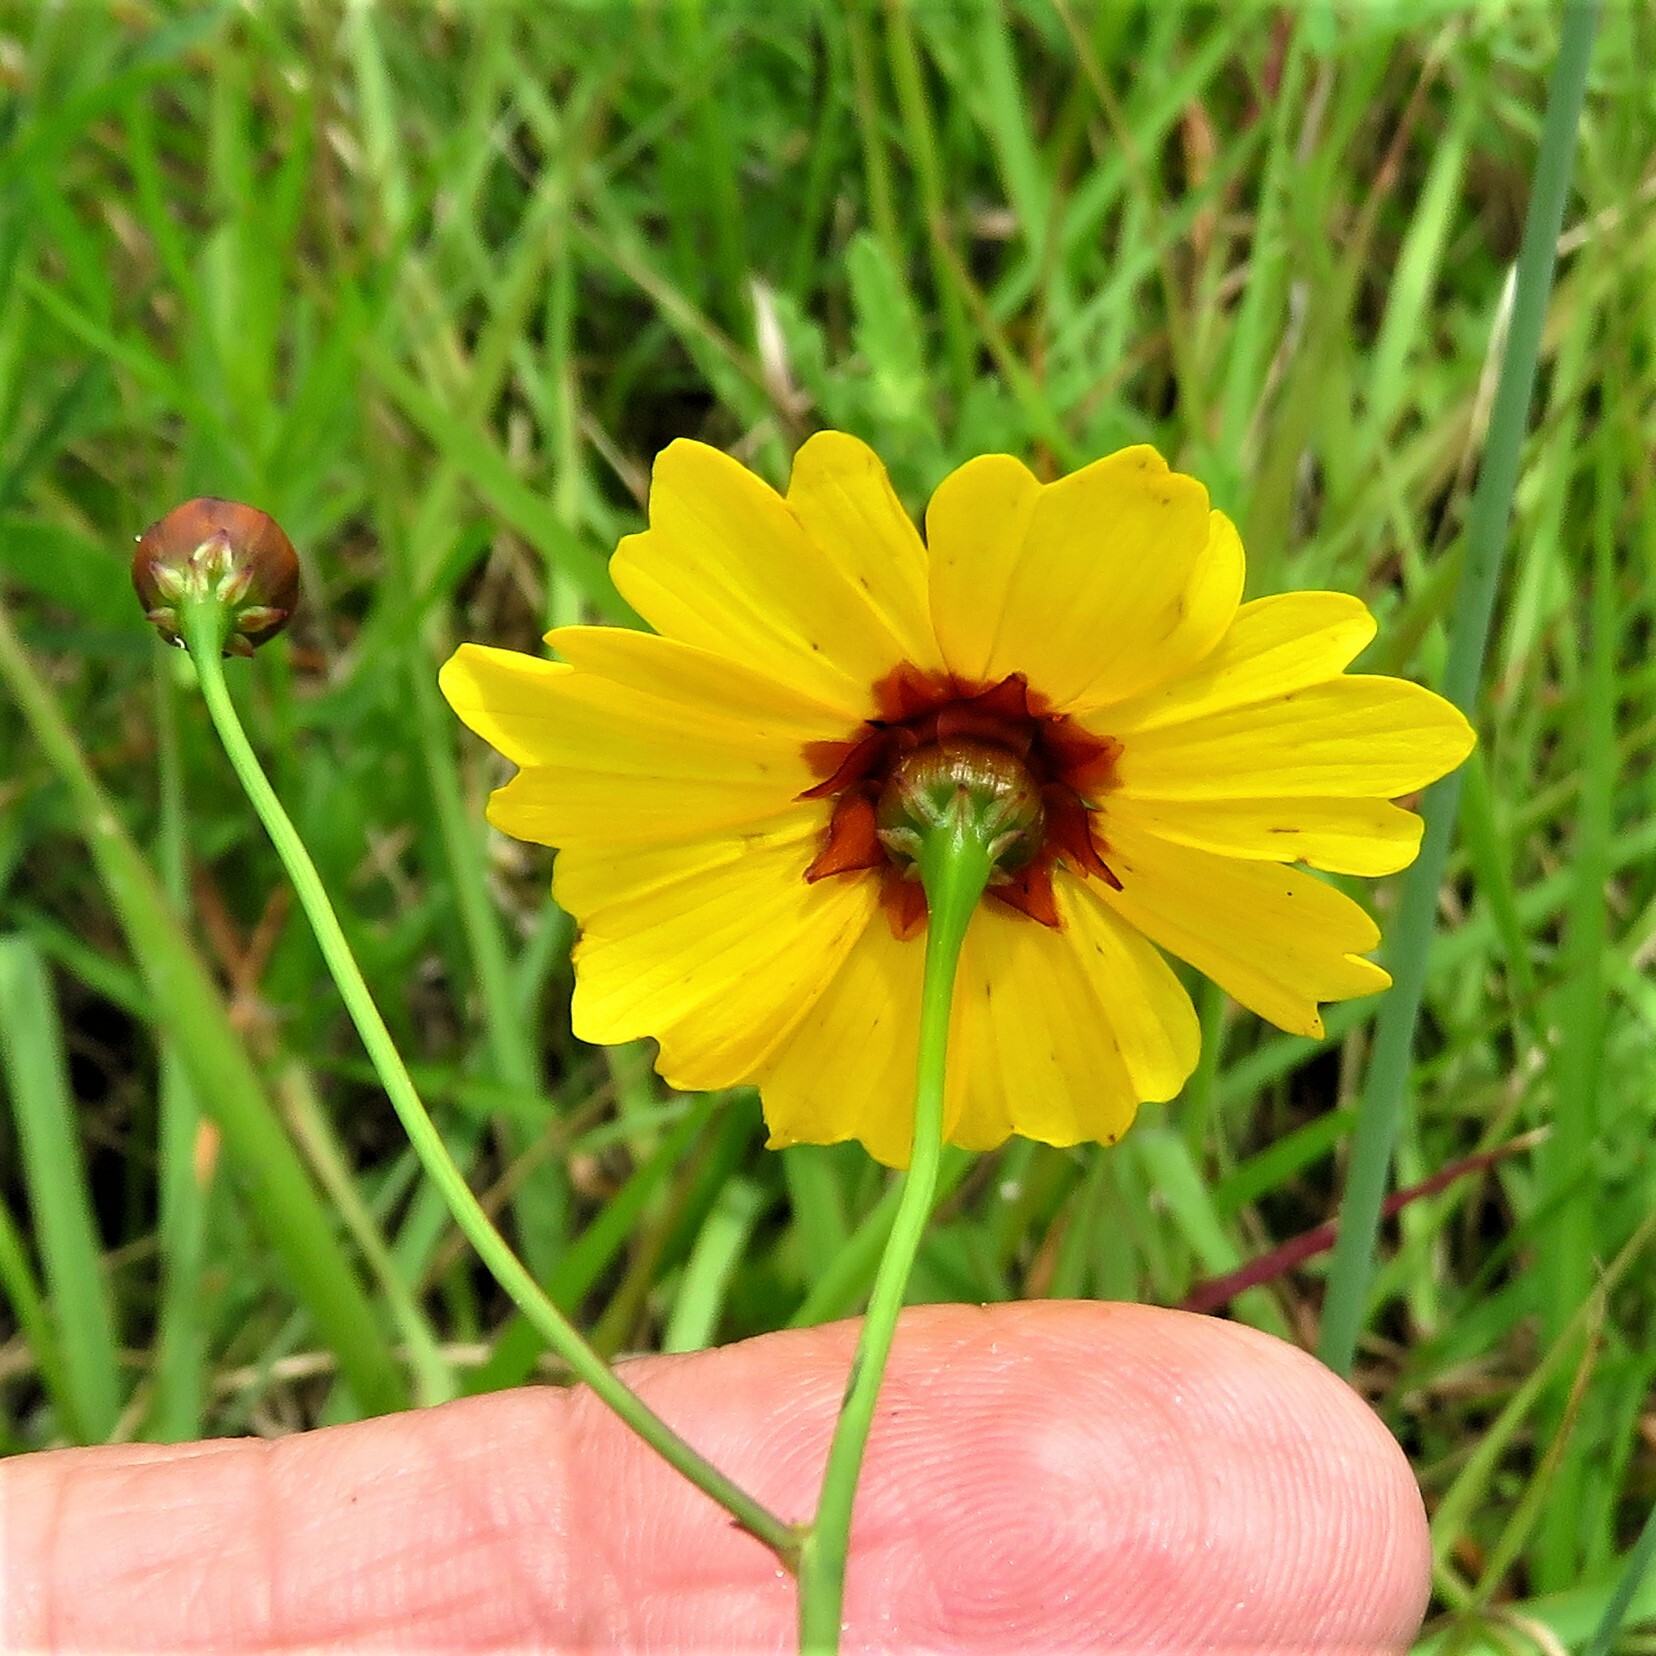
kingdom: Plantae
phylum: Tracheophyta
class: Magnoliopsida
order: Asterales
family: Asteraceae
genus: Coreopsis
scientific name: Coreopsis tinctoria
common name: Garden tickseed
